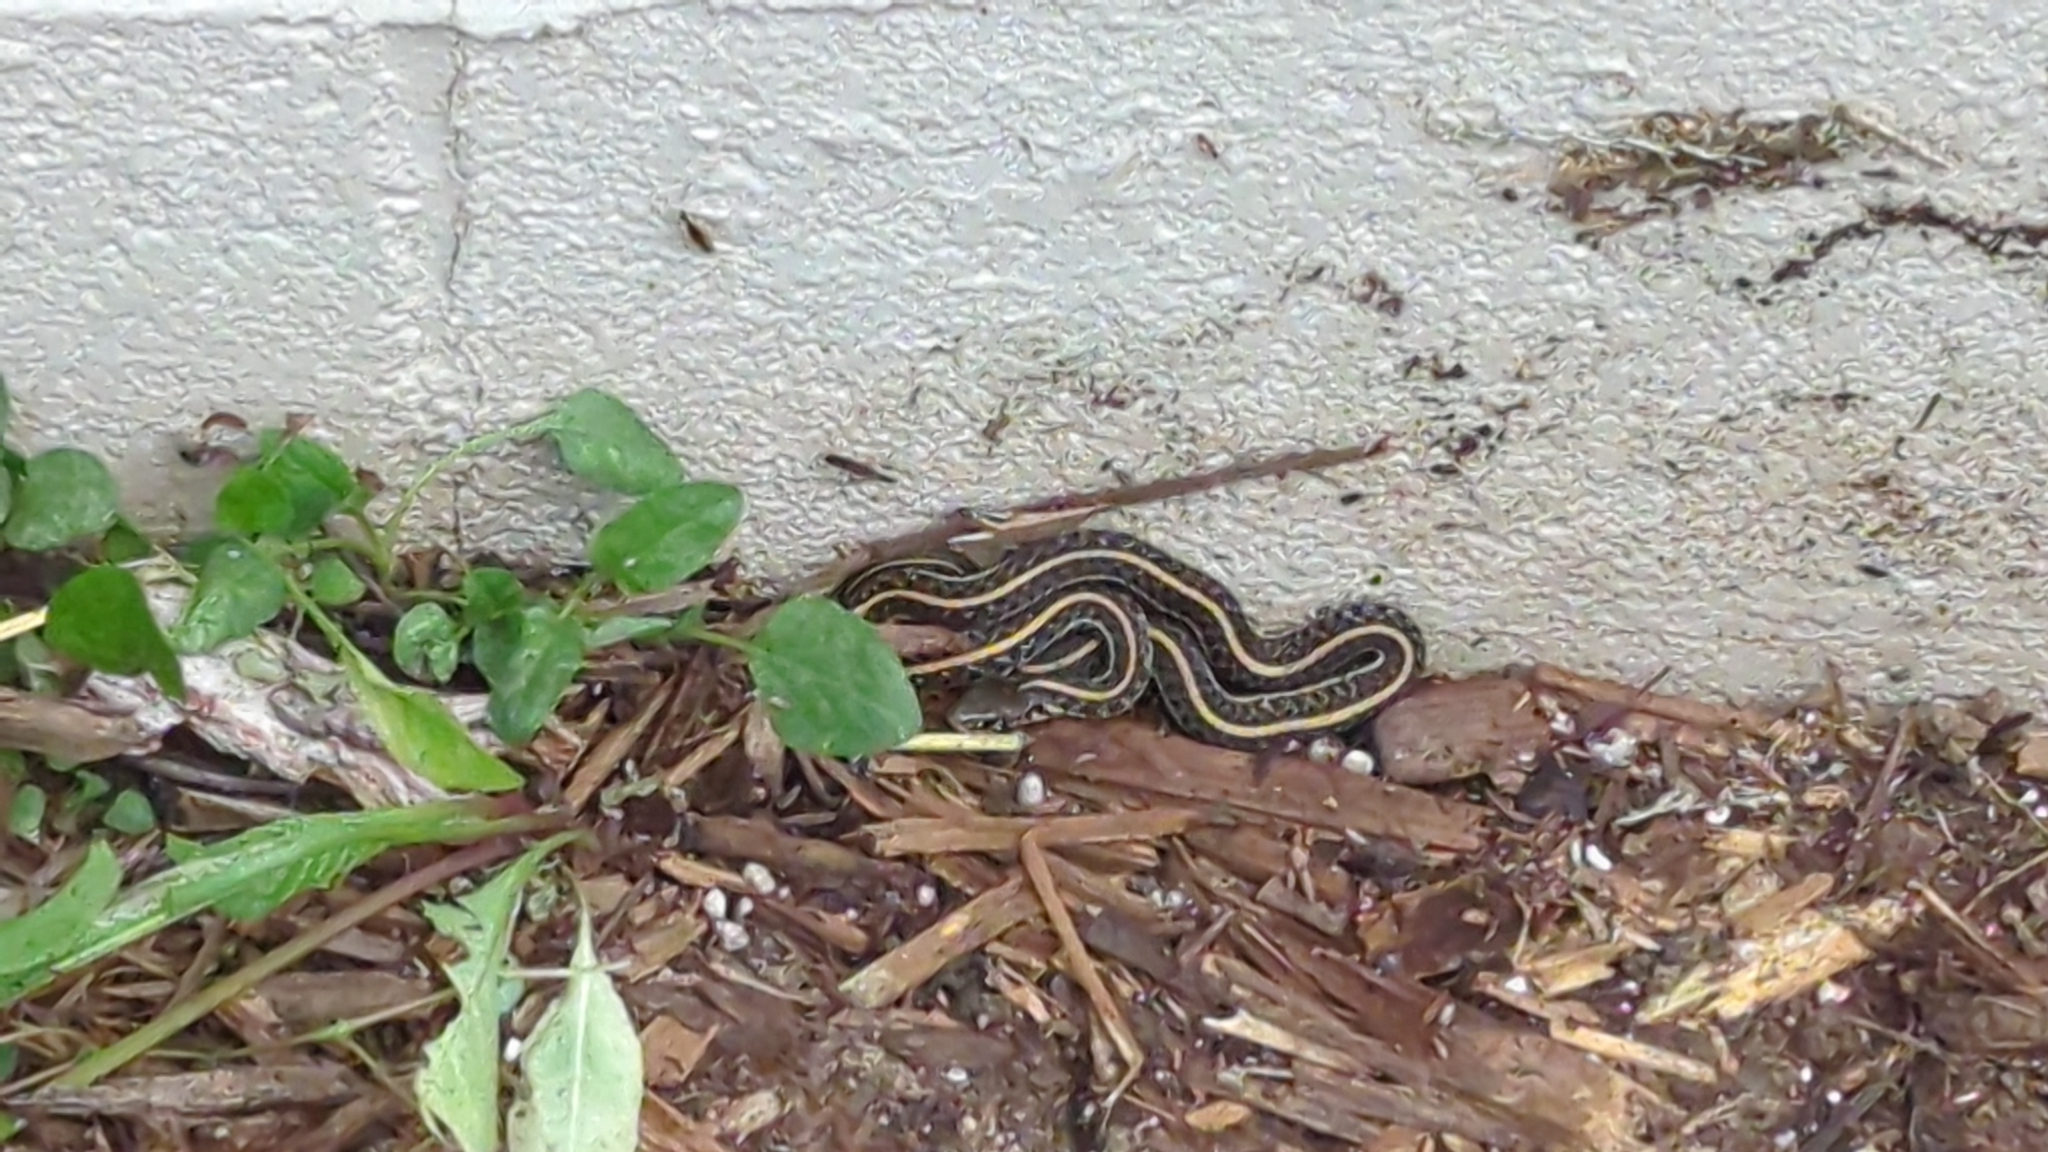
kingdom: Animalia
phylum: Chordata
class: Squamata
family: Colubridae
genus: Thamnophis
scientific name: Thamnophis radix
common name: Plains garter snake
